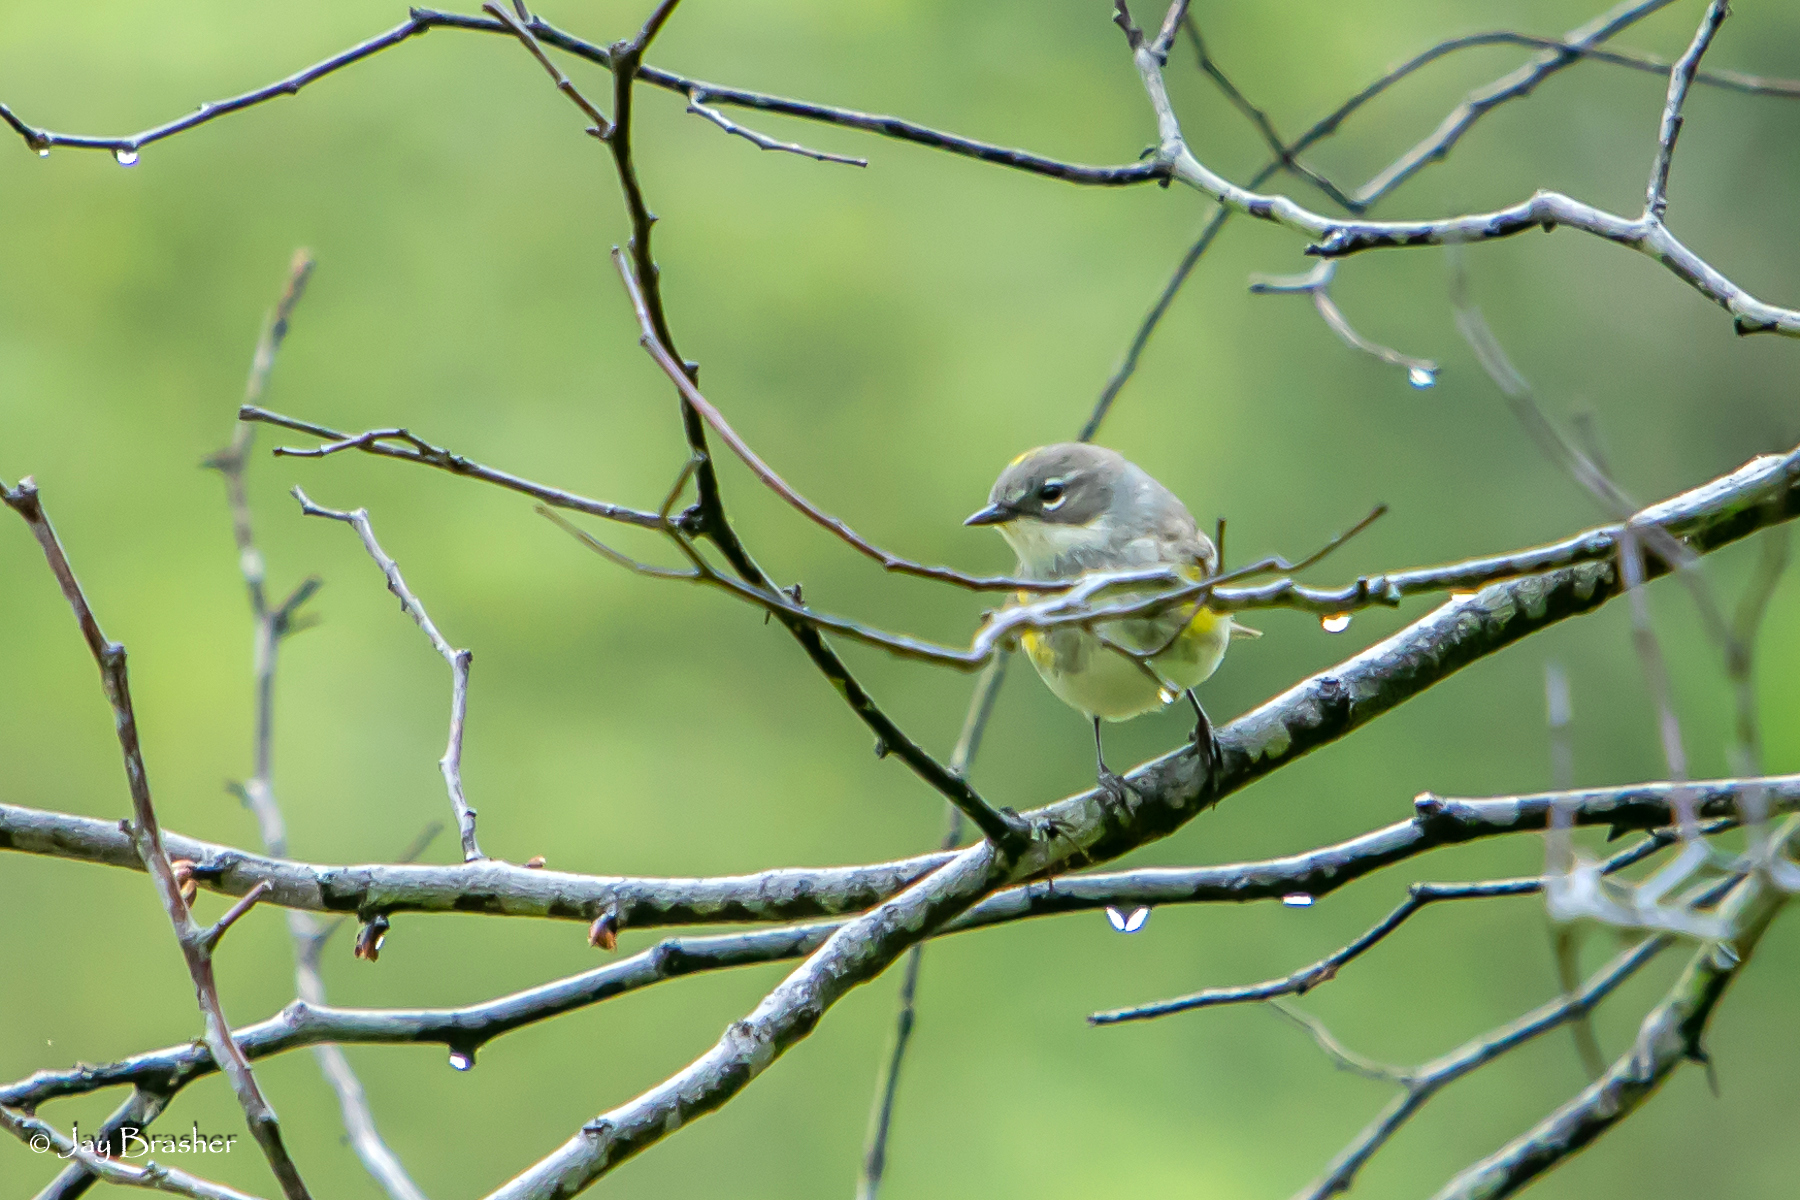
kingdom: Animalia
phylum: Chordata
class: Aves
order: Passeriformes
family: Parulidae
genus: Setophaga
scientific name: Setophaga coronata
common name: Myrtle warbler
